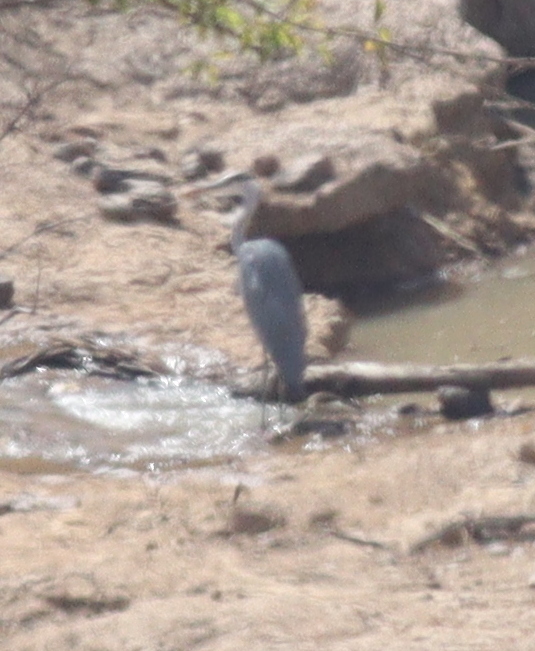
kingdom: Animalia
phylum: Chordata
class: Aves
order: Pelecaniformes
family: Ardeidae
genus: Ardea
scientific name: Ardea cinerea
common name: Grey heron
